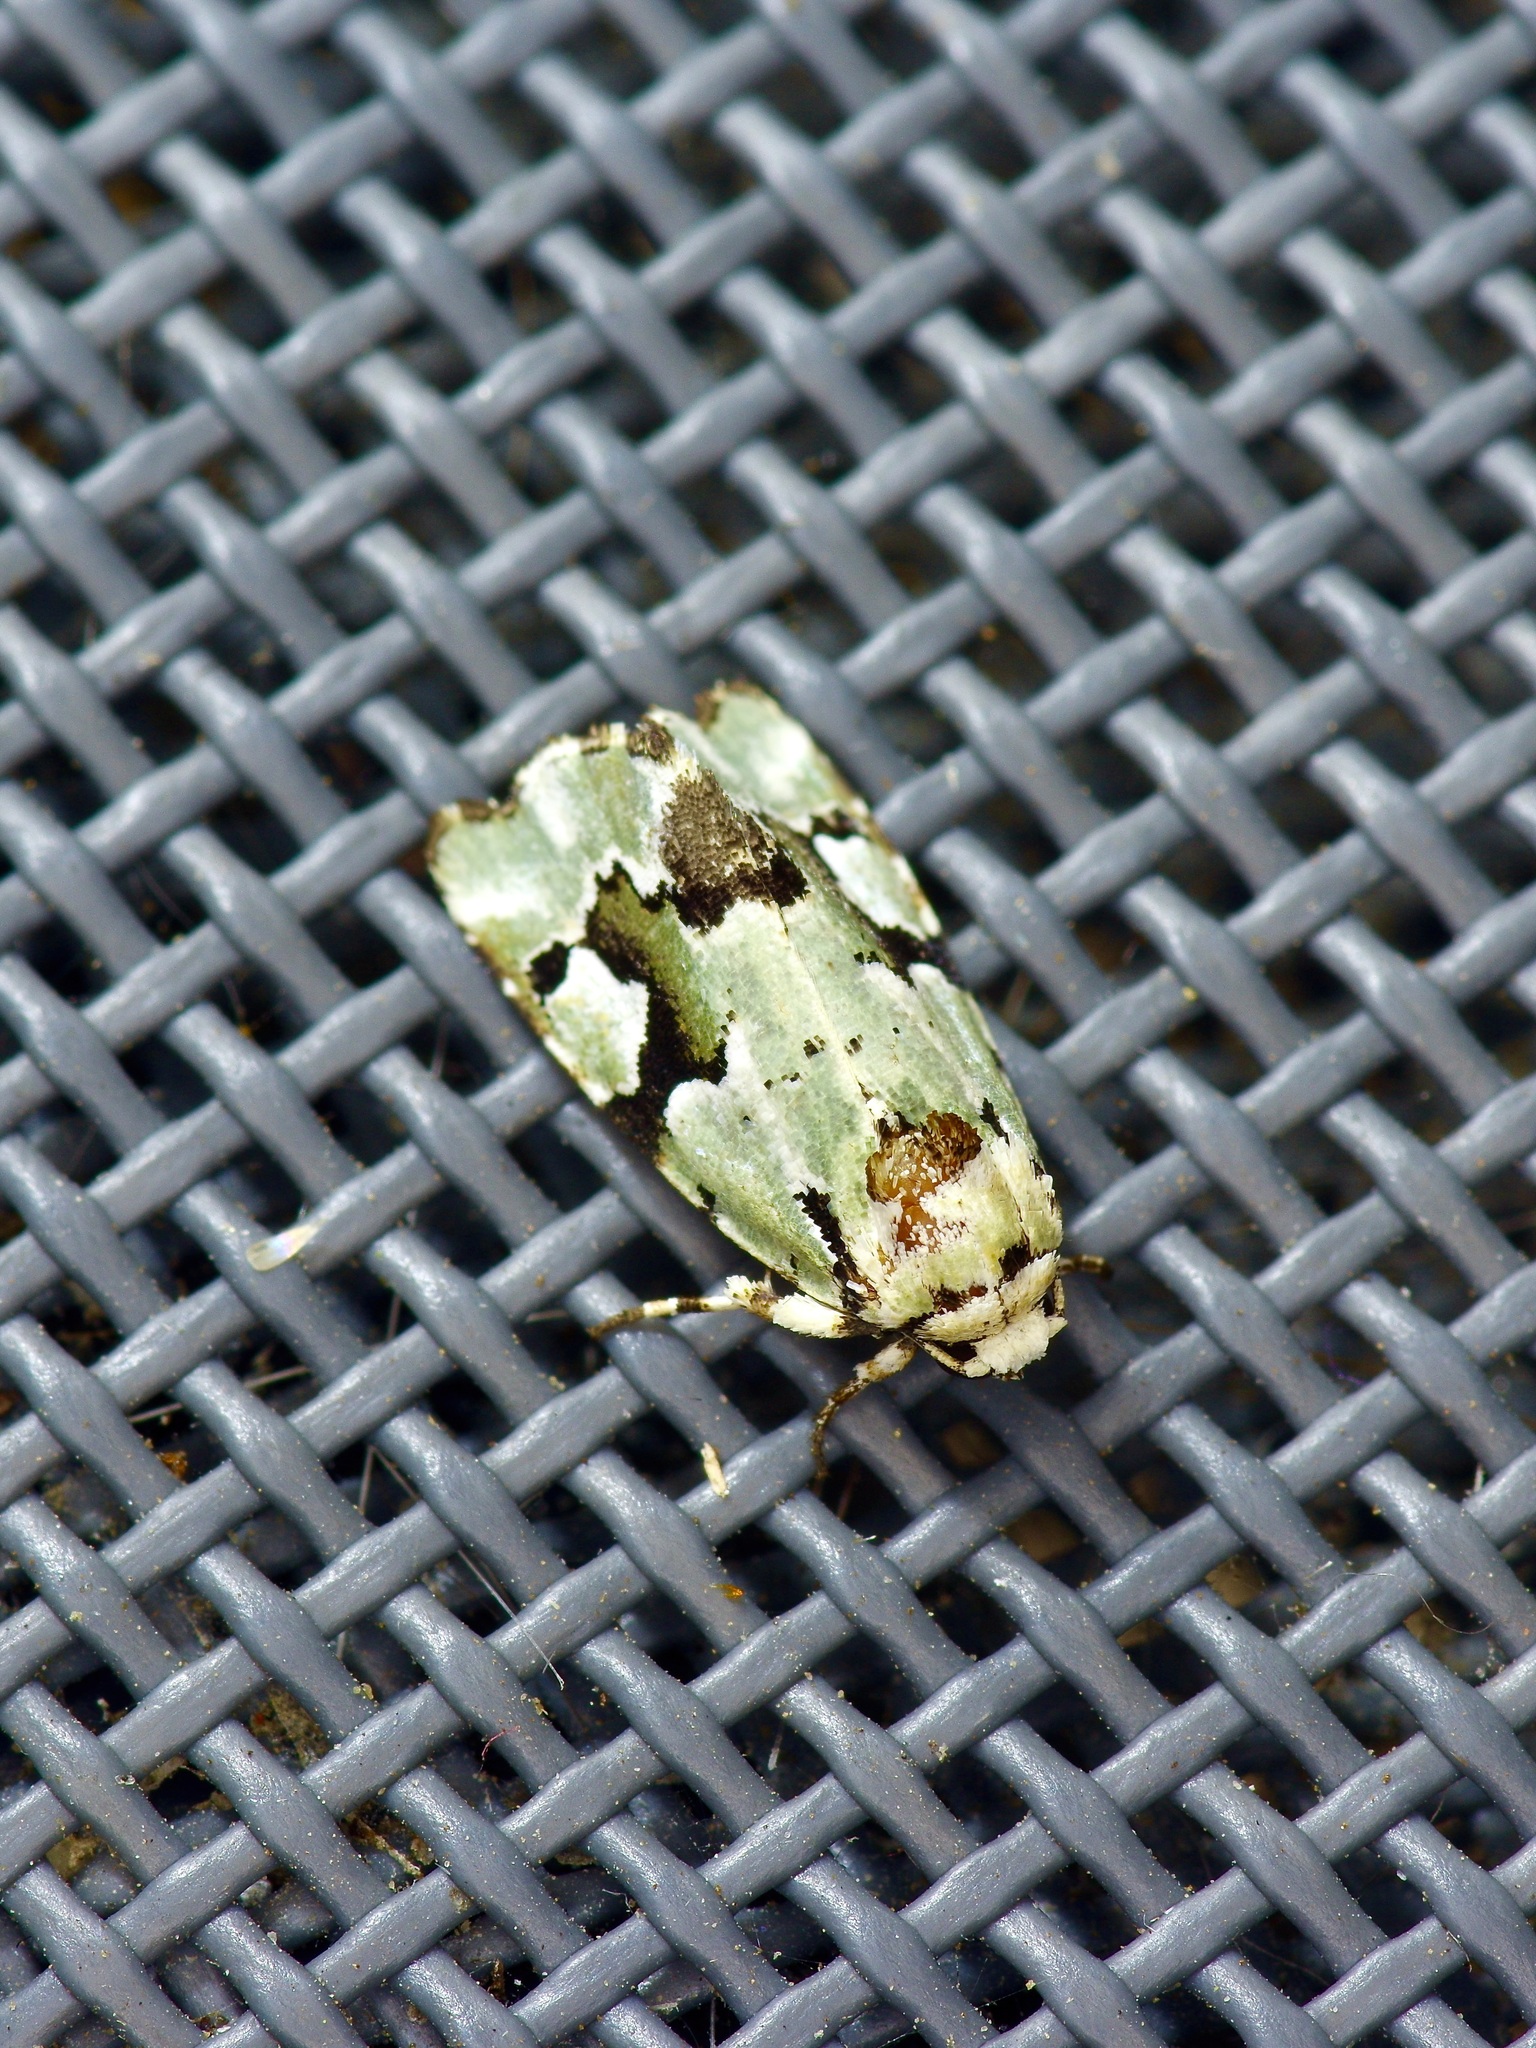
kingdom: Animalia
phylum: Arthropoda
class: Insecta
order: Lepidoptera
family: Noctuidae
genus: Emarginea
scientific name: Emarginea percara
